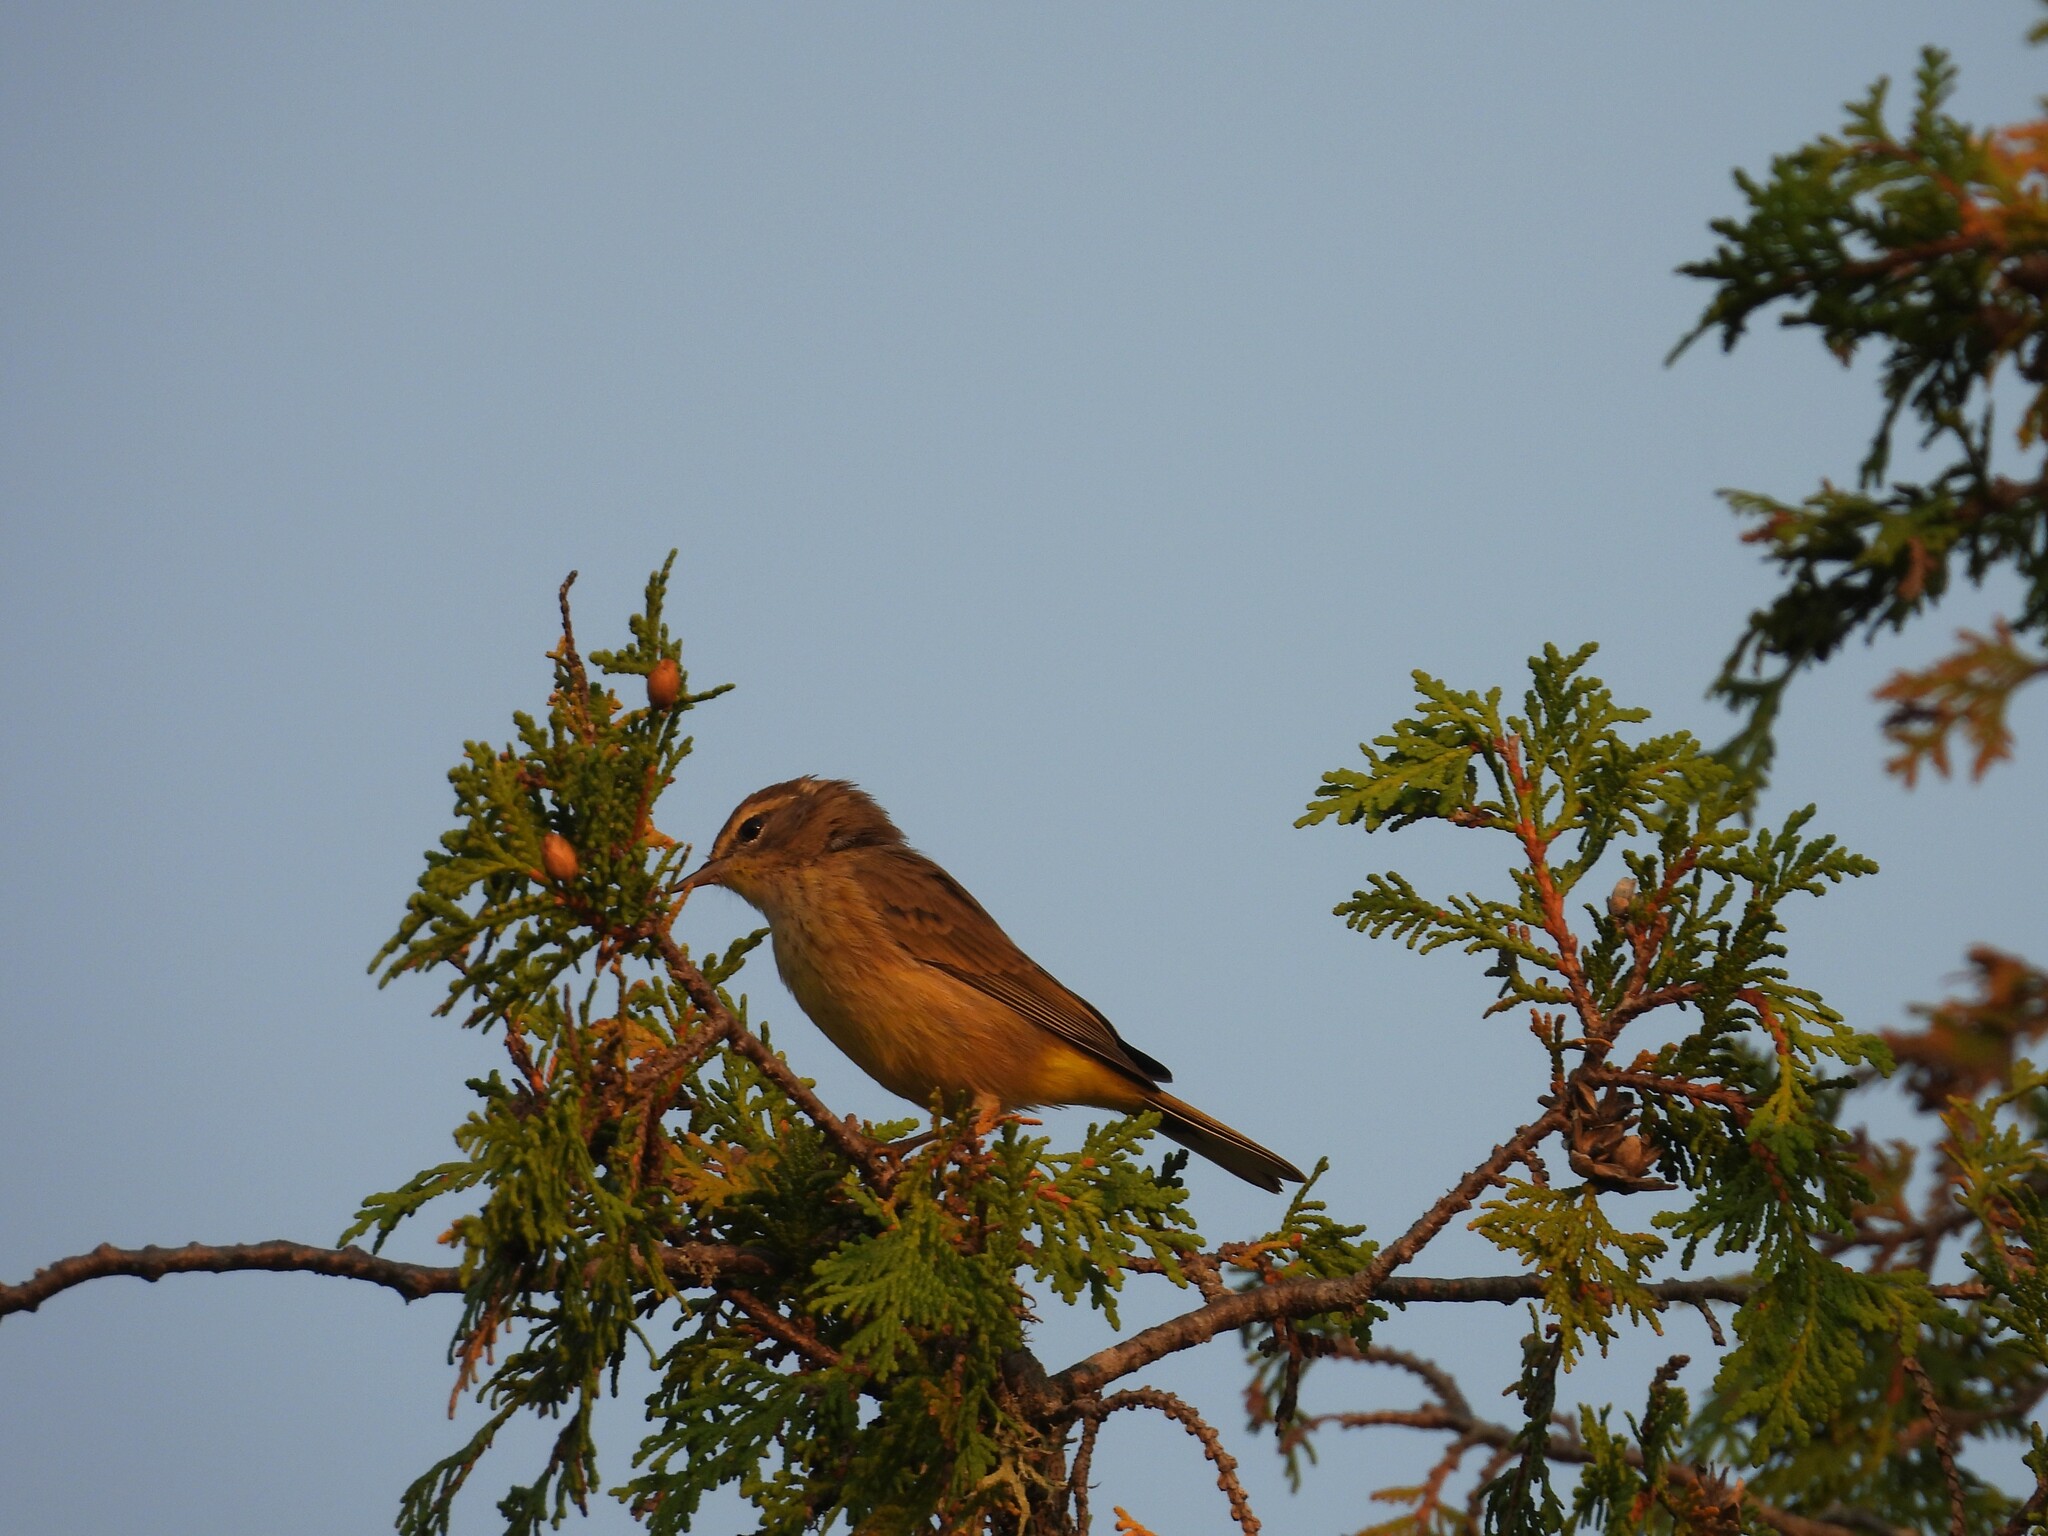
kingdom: Animalia
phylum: Chordata
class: Aves
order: Passeriformes
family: Parulidae
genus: Setophaga
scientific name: Setophaga palmarum
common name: Palm warbler
